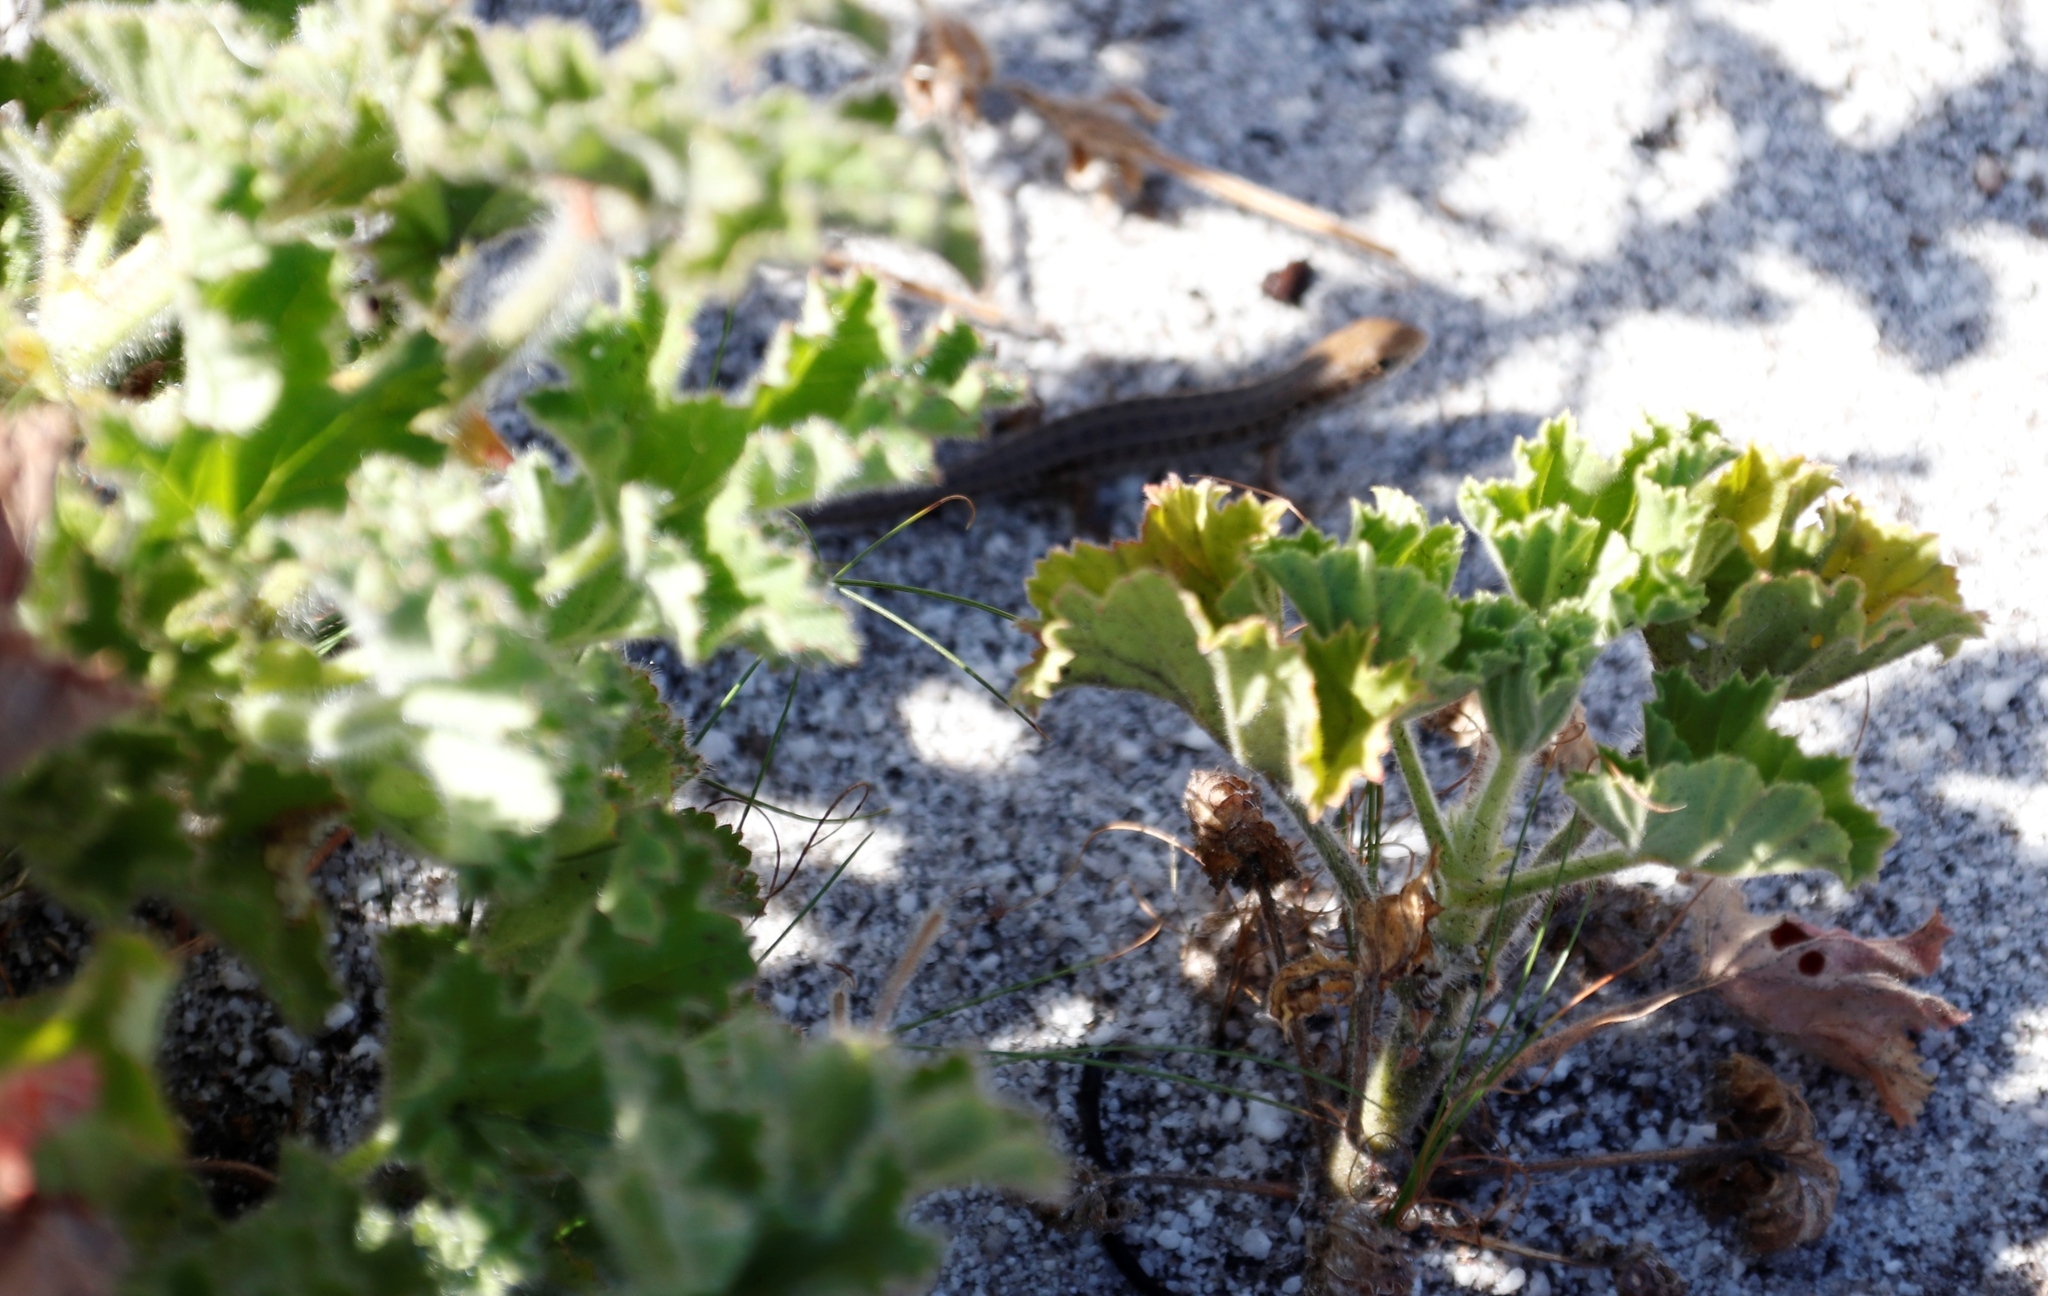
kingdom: Animalia
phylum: Chordata
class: Squamata
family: Scincidae
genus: Trachylepis
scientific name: Trachylepis capensis
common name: Cape skink
